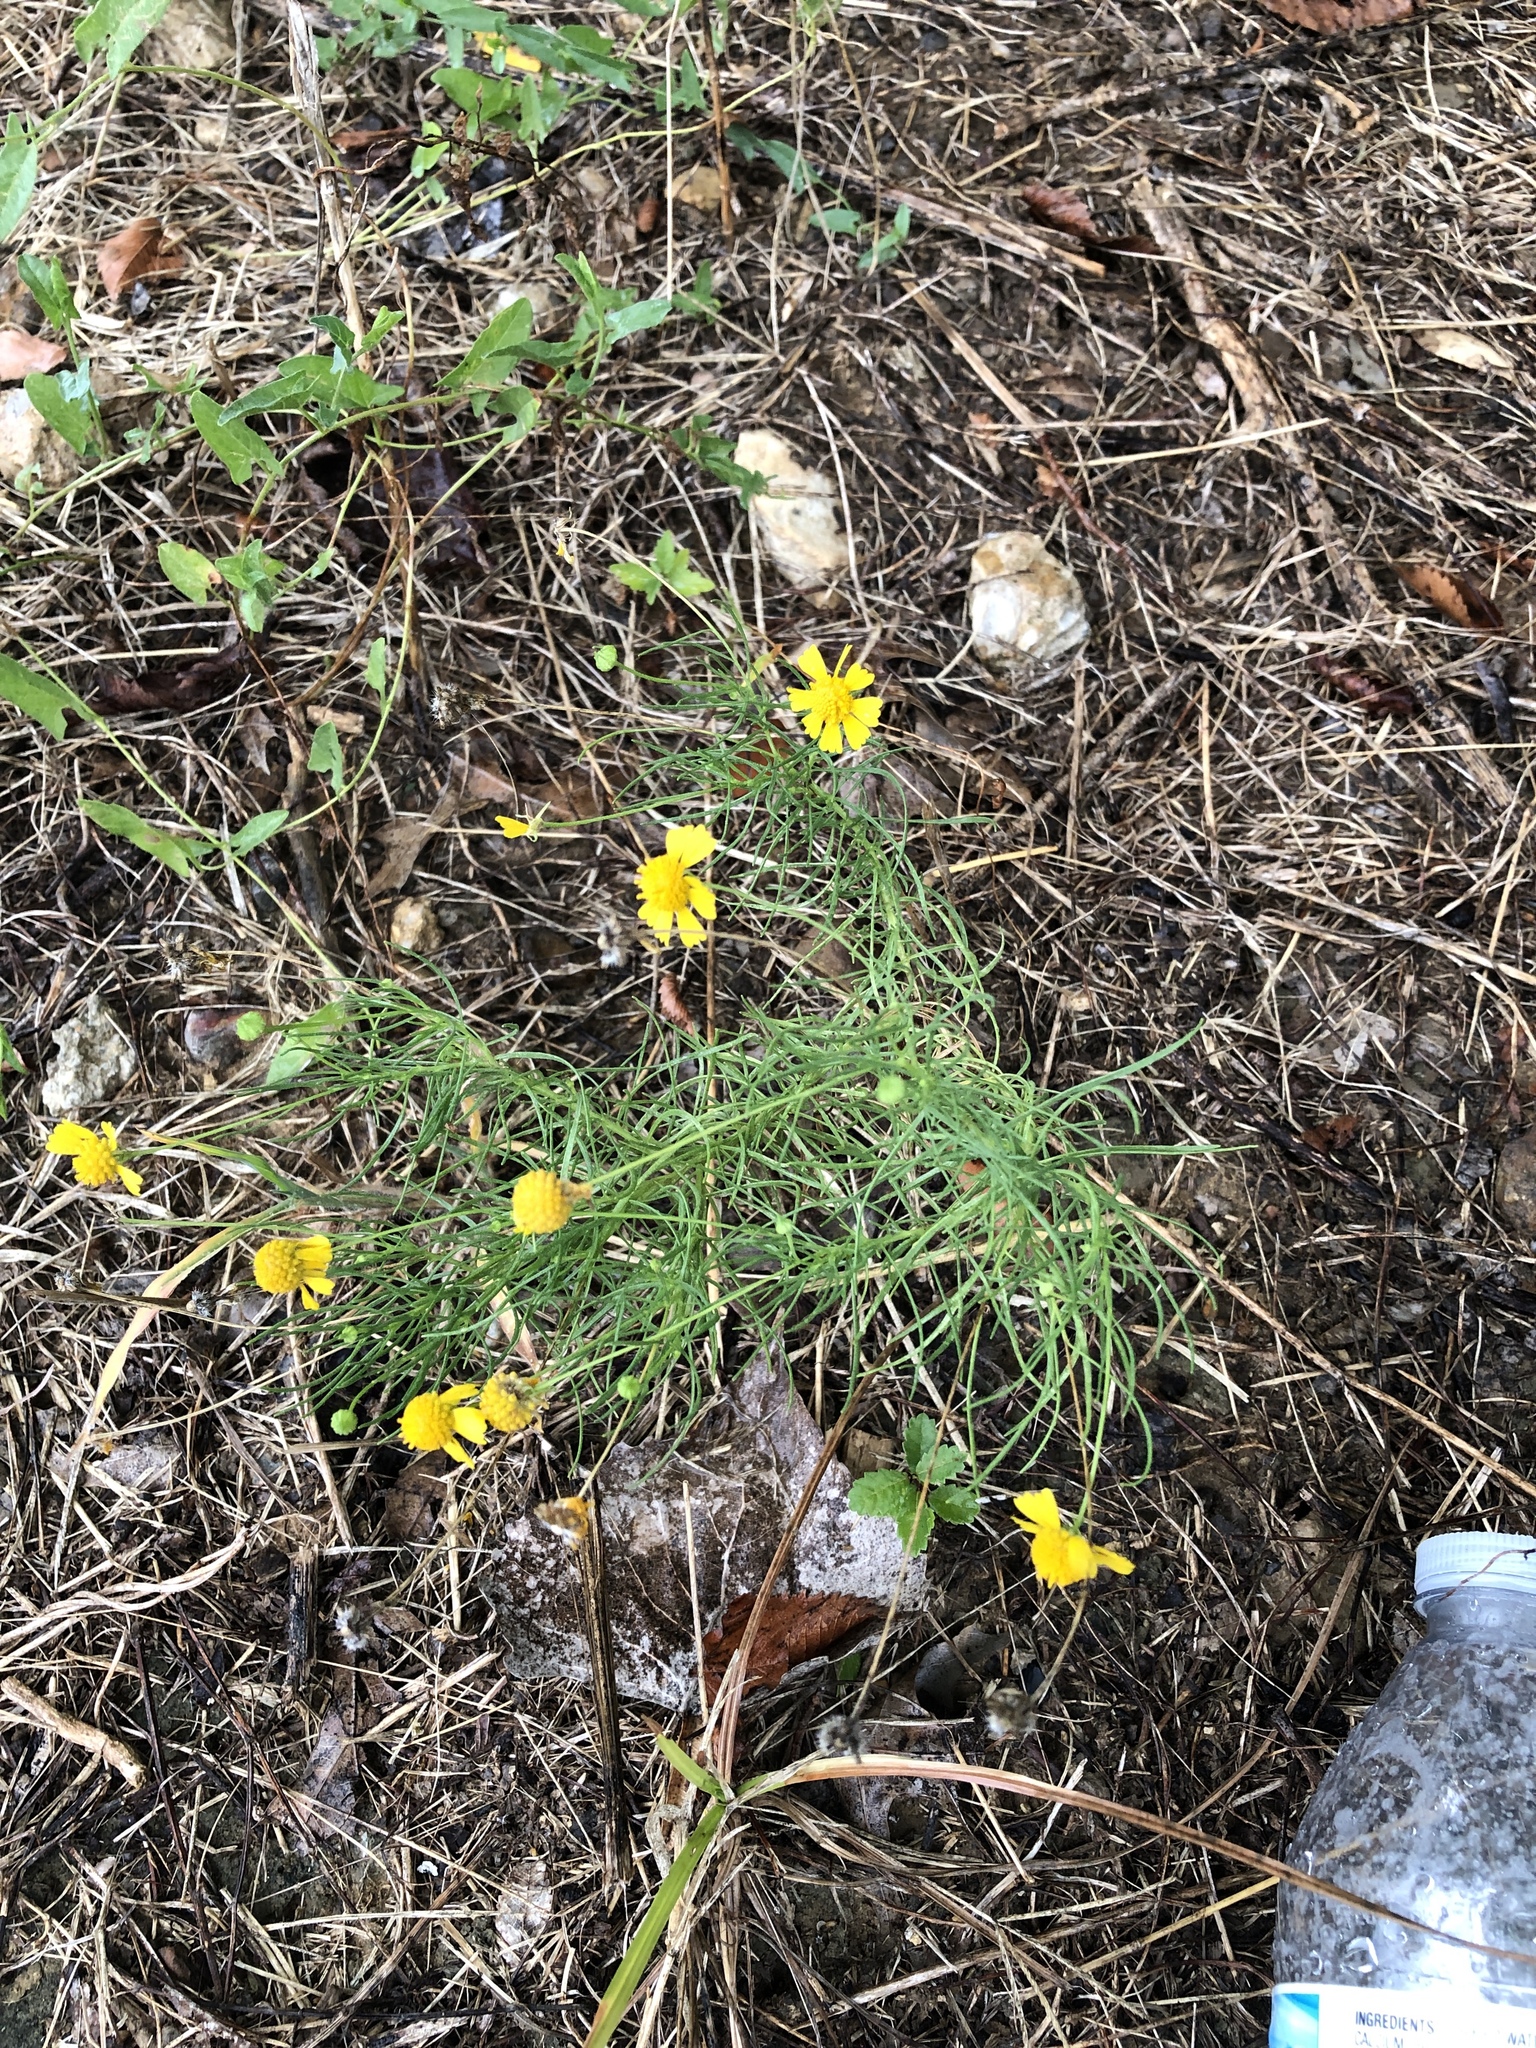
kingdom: Plantae
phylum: Tracheophyta
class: Magnoliopsida
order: Asterales
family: Asteraceae
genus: Helenium
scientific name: Helenium amarum
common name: Bitter sneezeweed
